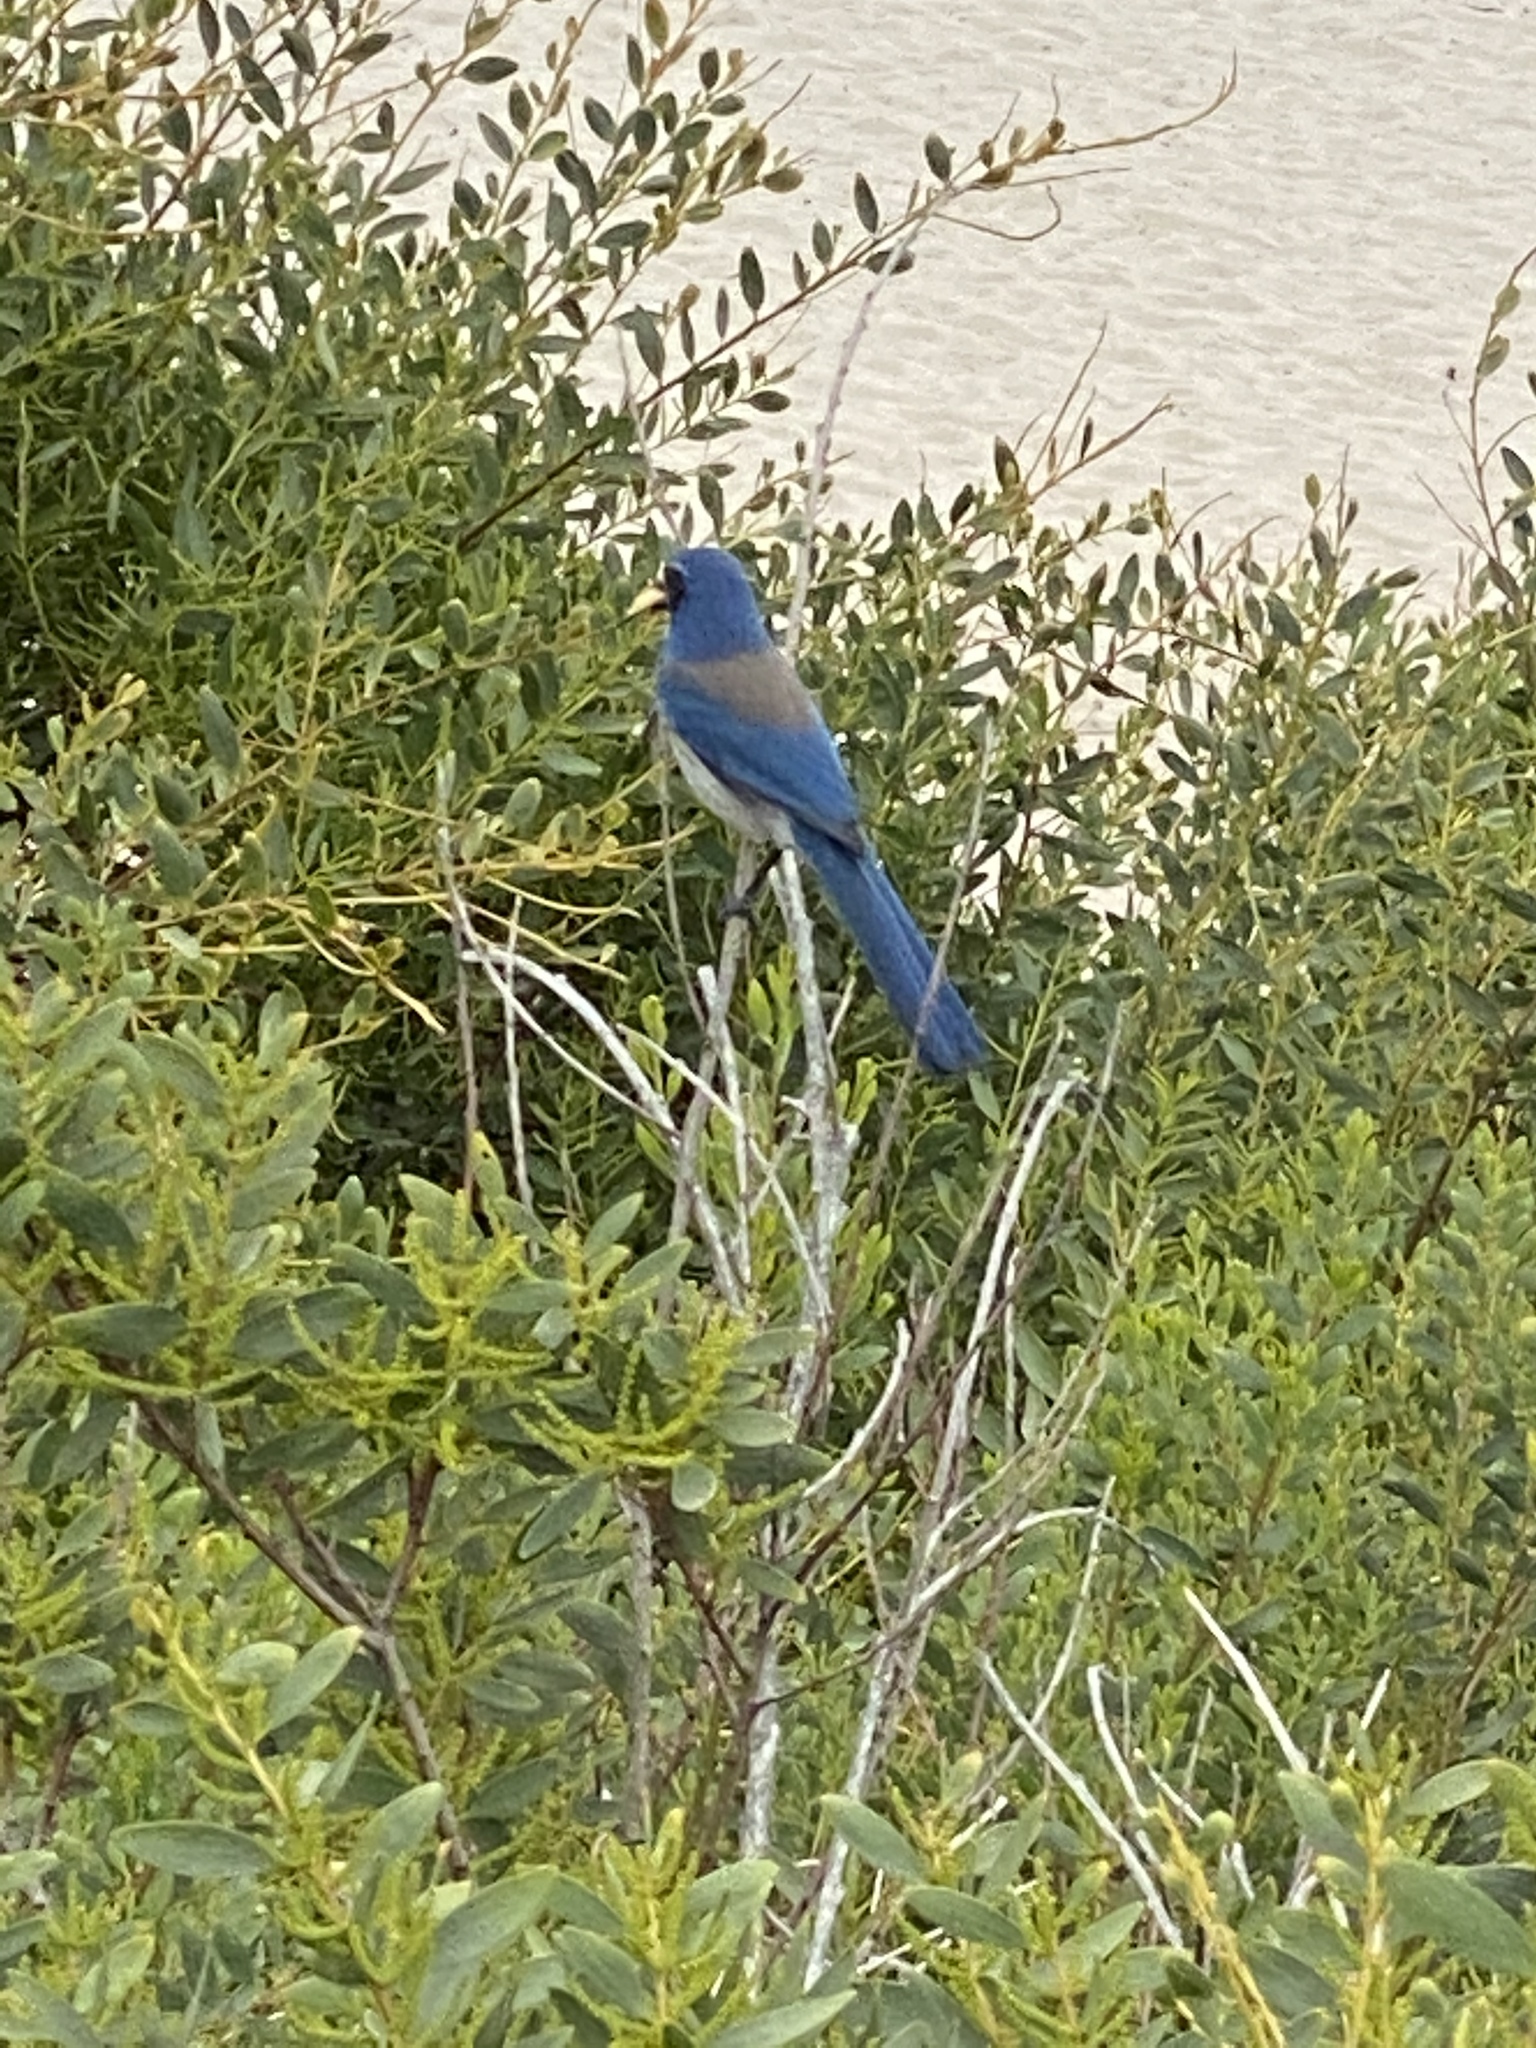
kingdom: Animalia
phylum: Chordata
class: Aves
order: Passeriformes
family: Corvidae
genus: Aphelocoma
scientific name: Aphelocoma californica
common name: California scrub-jay
